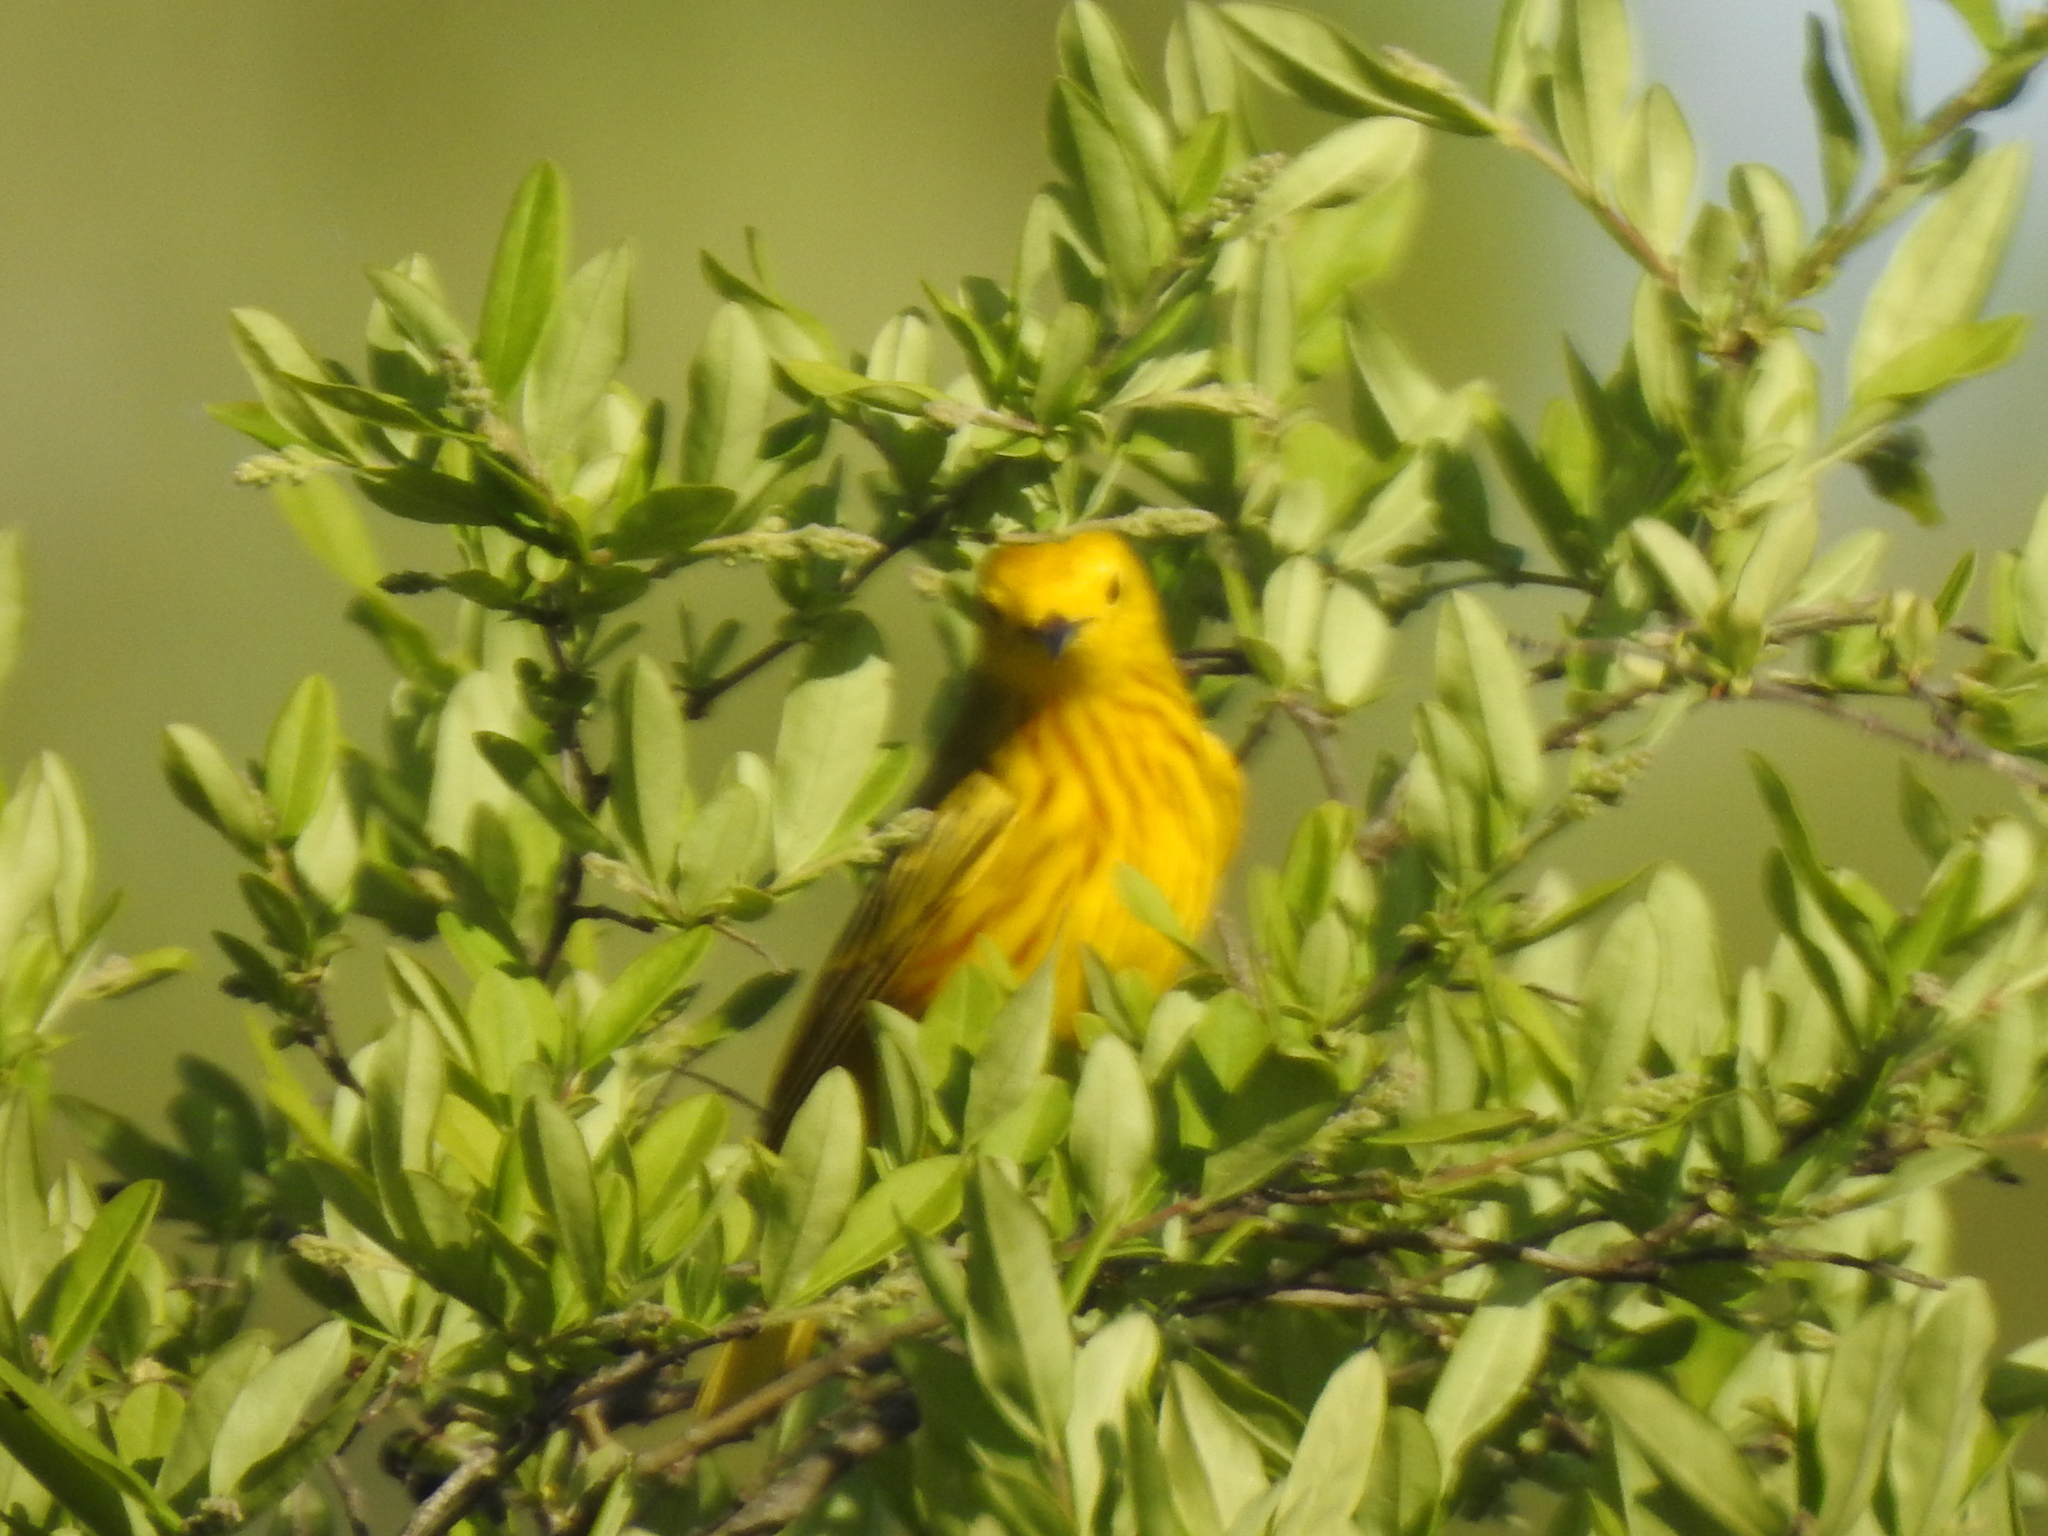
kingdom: Animalia
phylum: Chordata
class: Aves
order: Passeriformes
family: Parulidae
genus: Setophaga
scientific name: Setophaga petechia
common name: Yellow warbler
